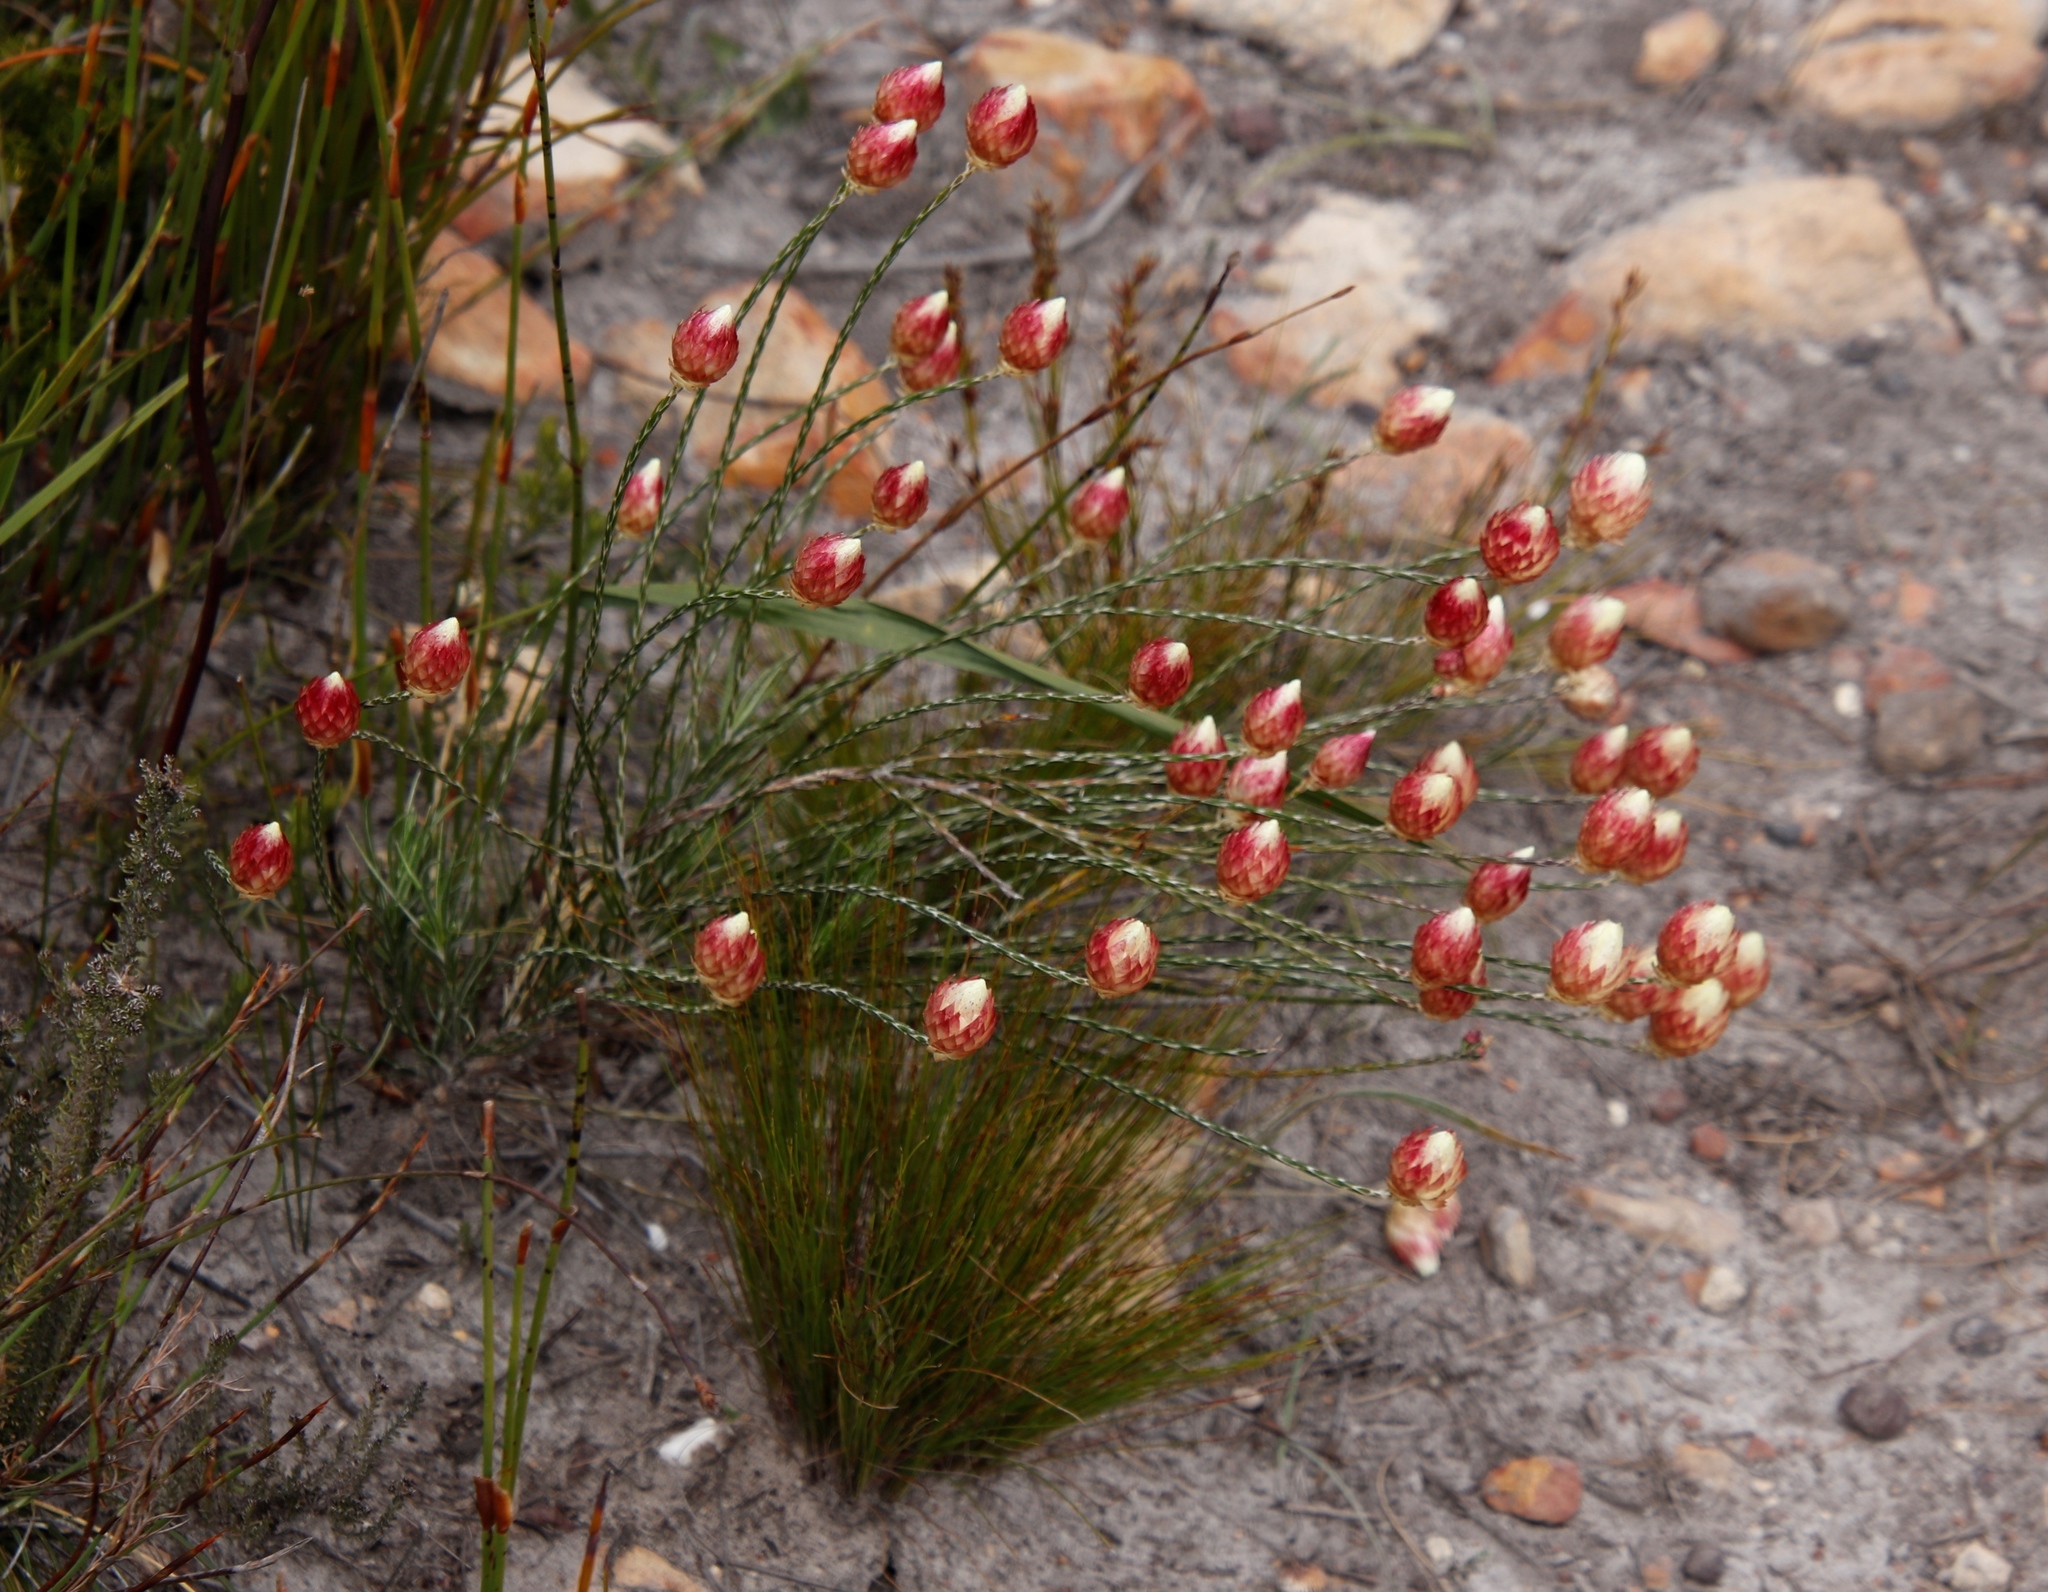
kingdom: Plantae
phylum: Tracheophyta
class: Magnoliopsida
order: Asterales
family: Asteraceae
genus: Edmondia
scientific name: Edmondia sesamoides
